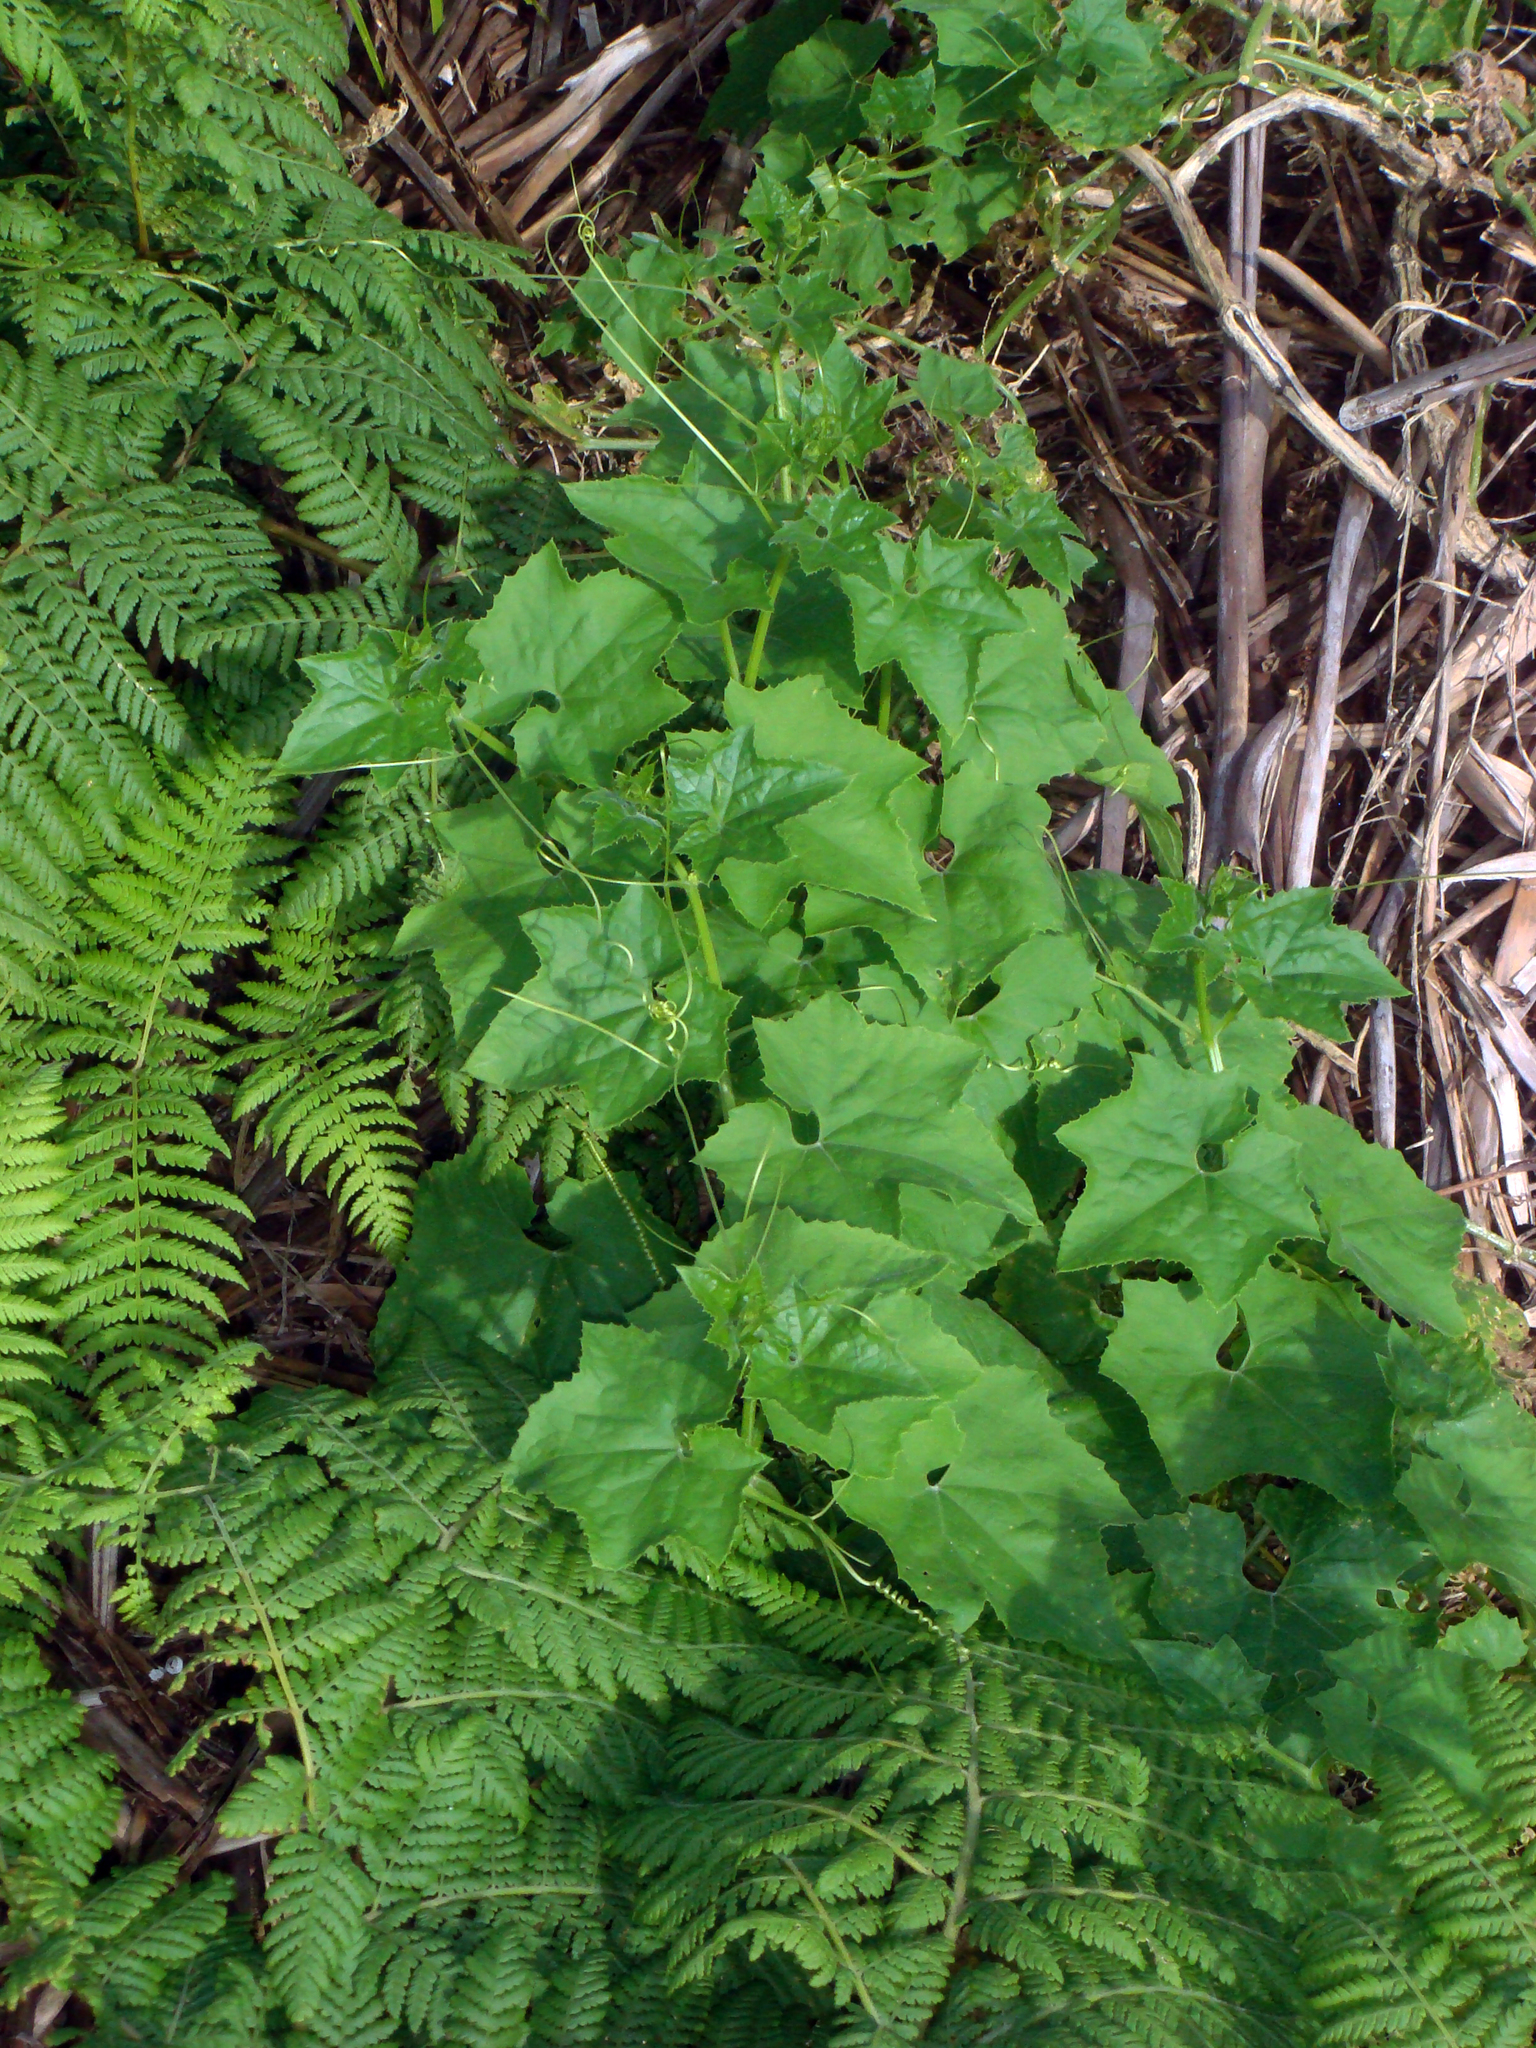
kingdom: Plantae
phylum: Tracheophyta
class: Magnoliopsida
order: Cucurbitales
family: Cucurbitaceae
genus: Sicyos
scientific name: Sicyos mawhai
